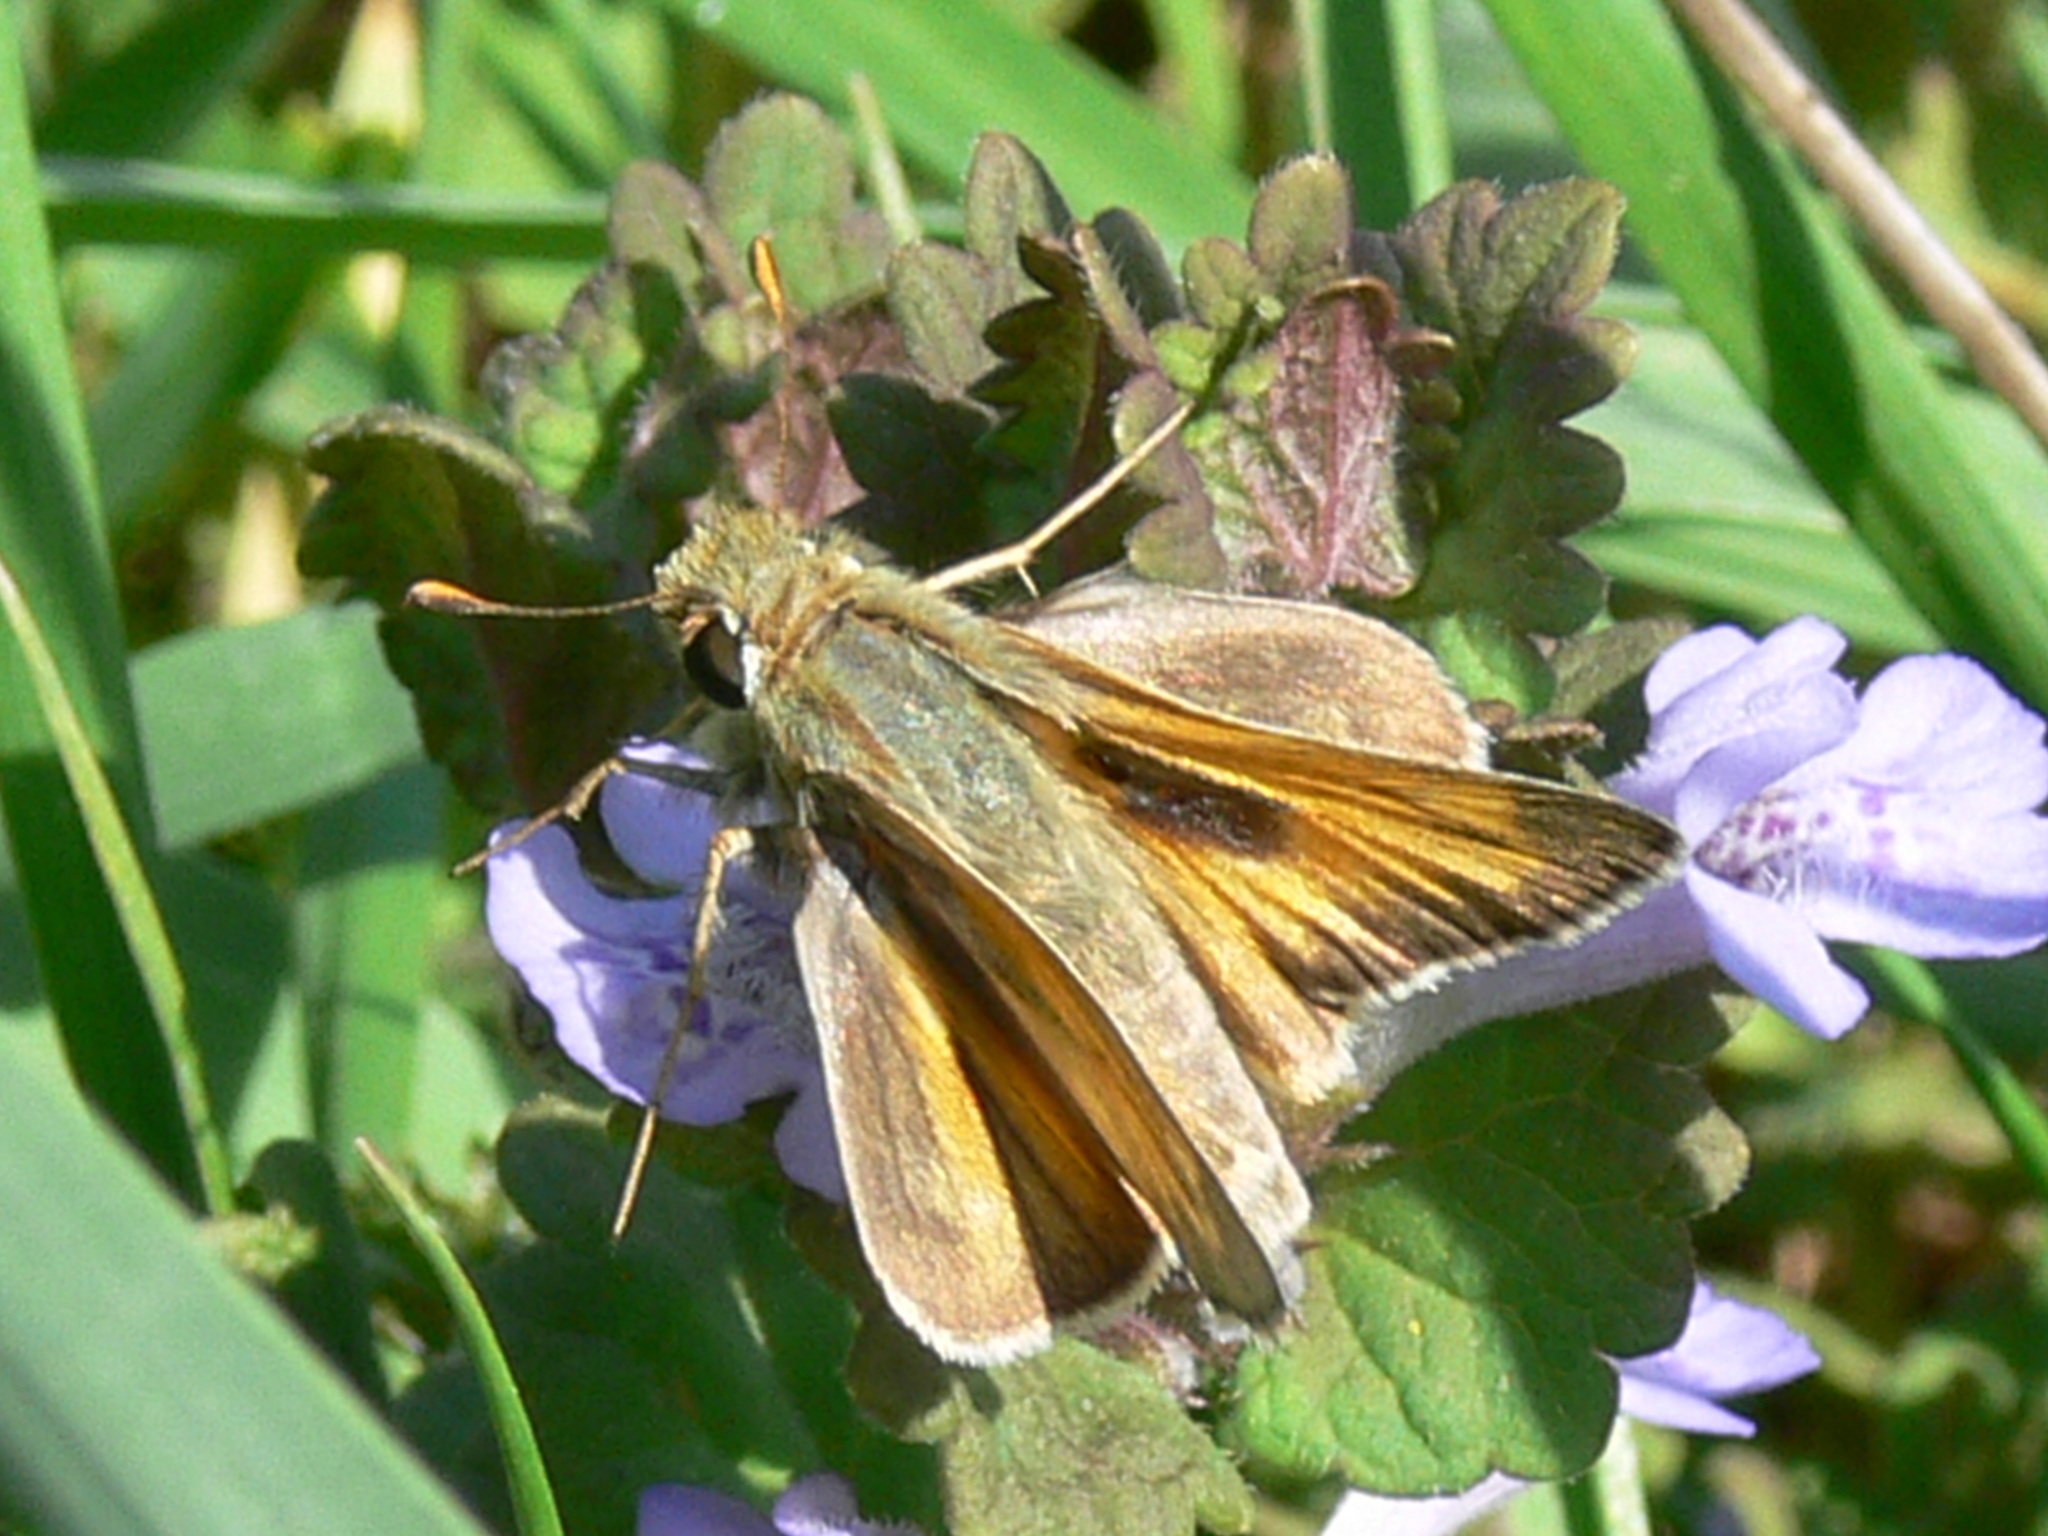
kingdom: Animalia
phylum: Arthropoda
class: Insecta
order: Lepidoptera
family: Hesperiidae
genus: Atalopedes
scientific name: Atalopedes
